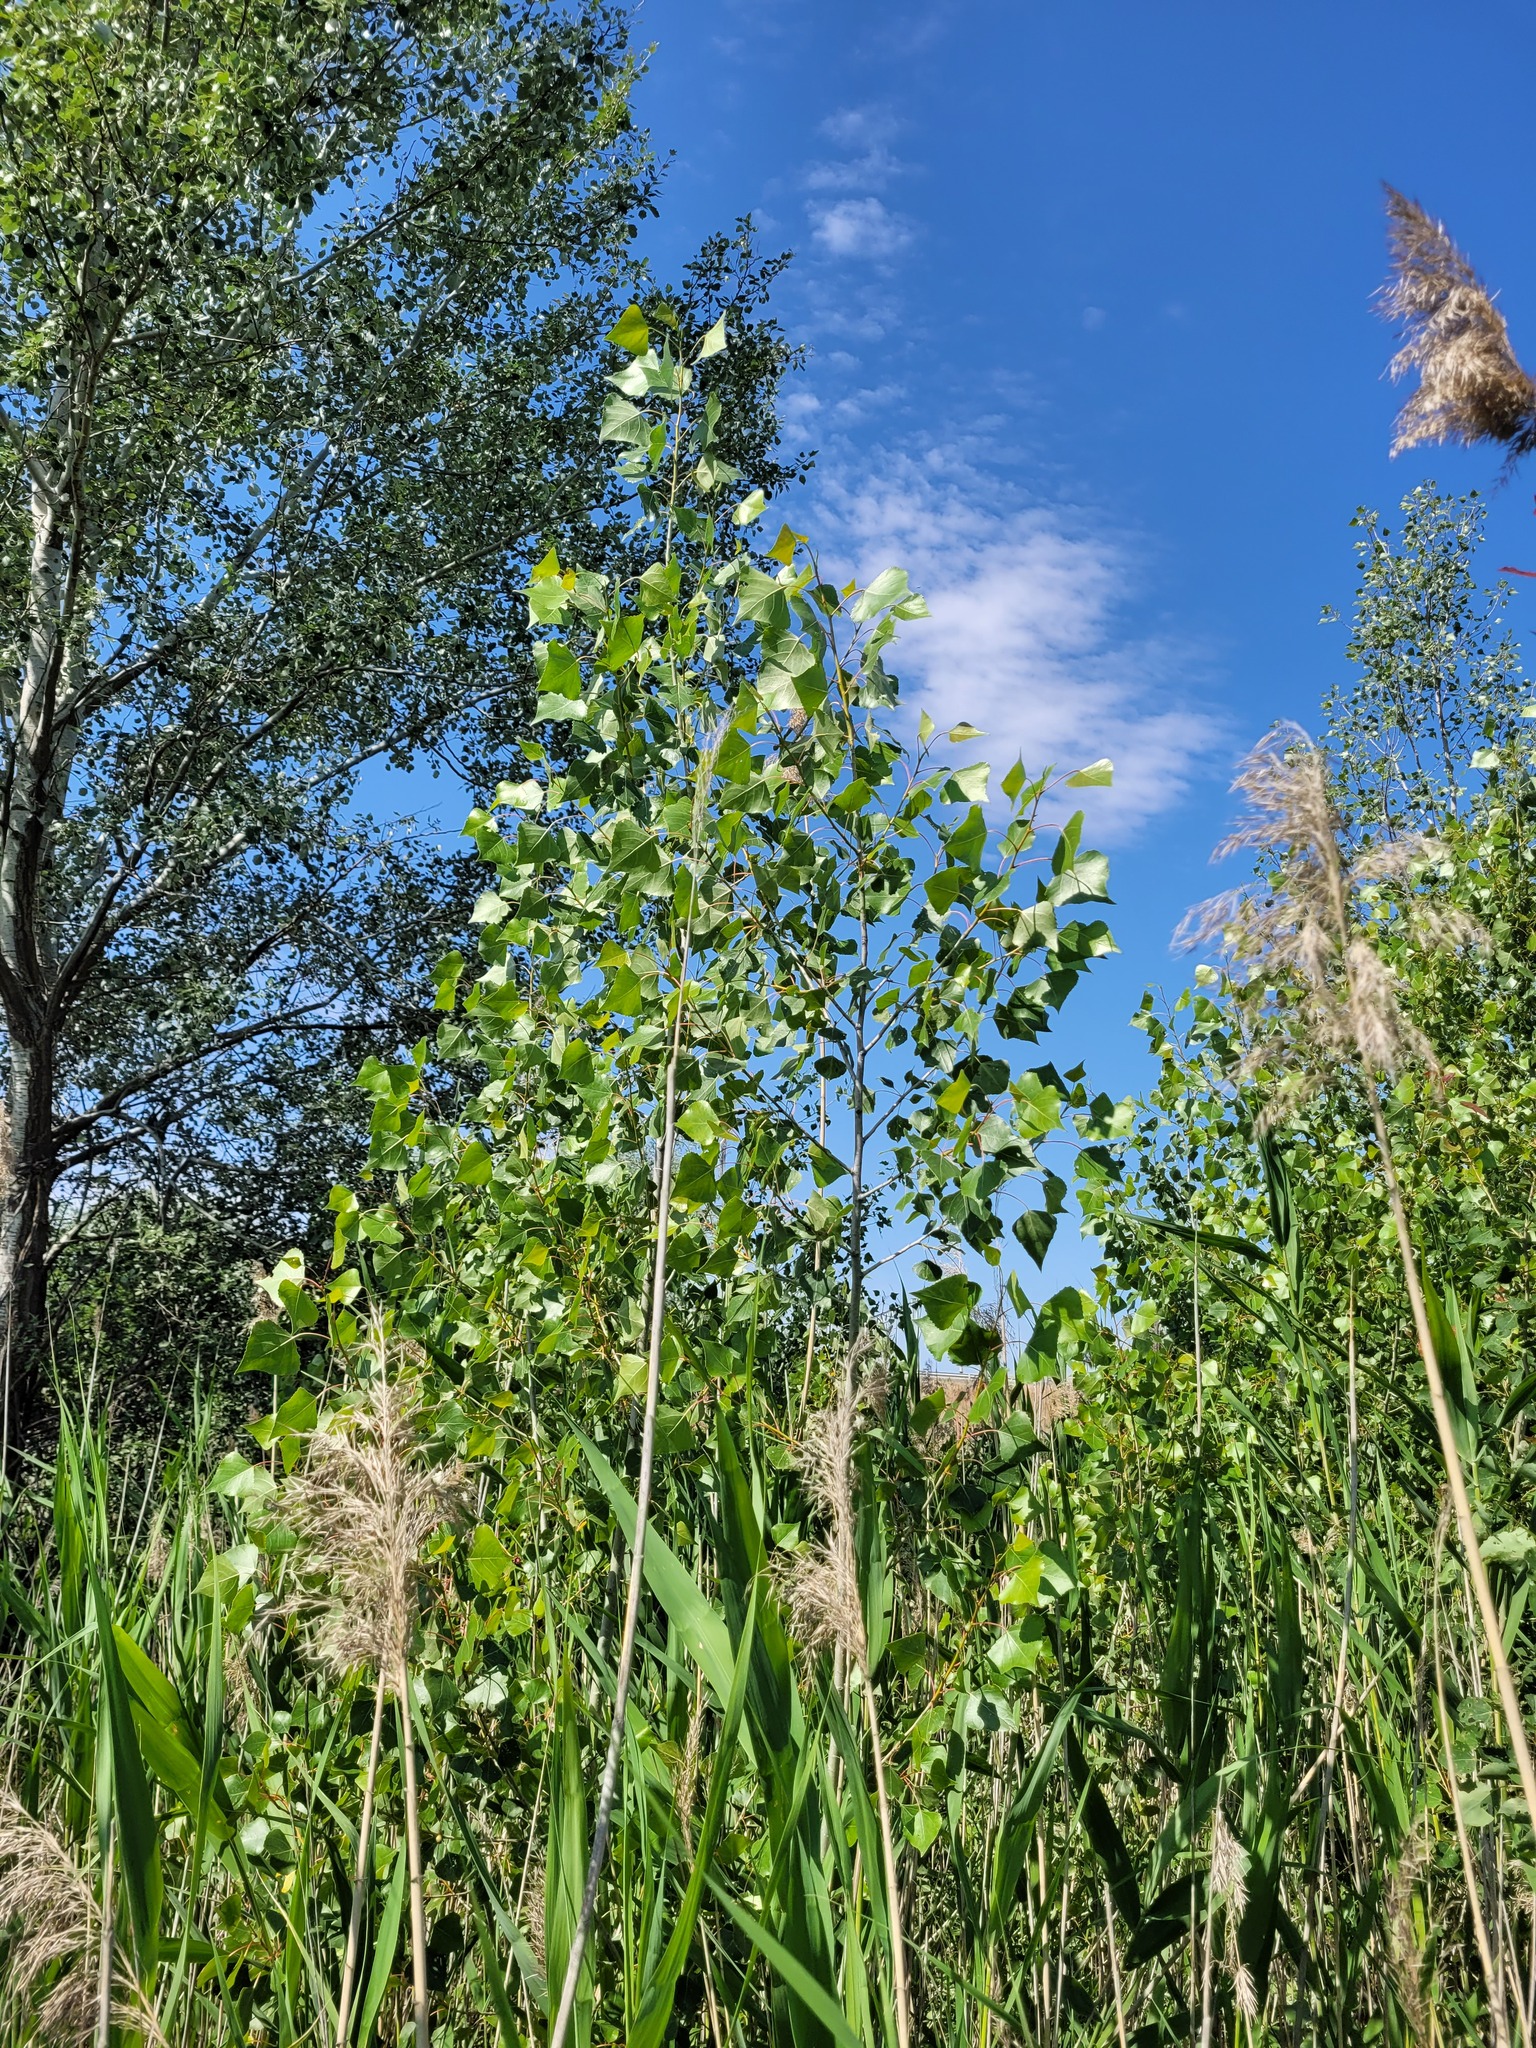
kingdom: Plantae
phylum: Tracheophyta
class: Magnoliopsida
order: Malpighiales
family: Salicaceae
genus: Populus
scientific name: Populus nigra
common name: Black poplar
